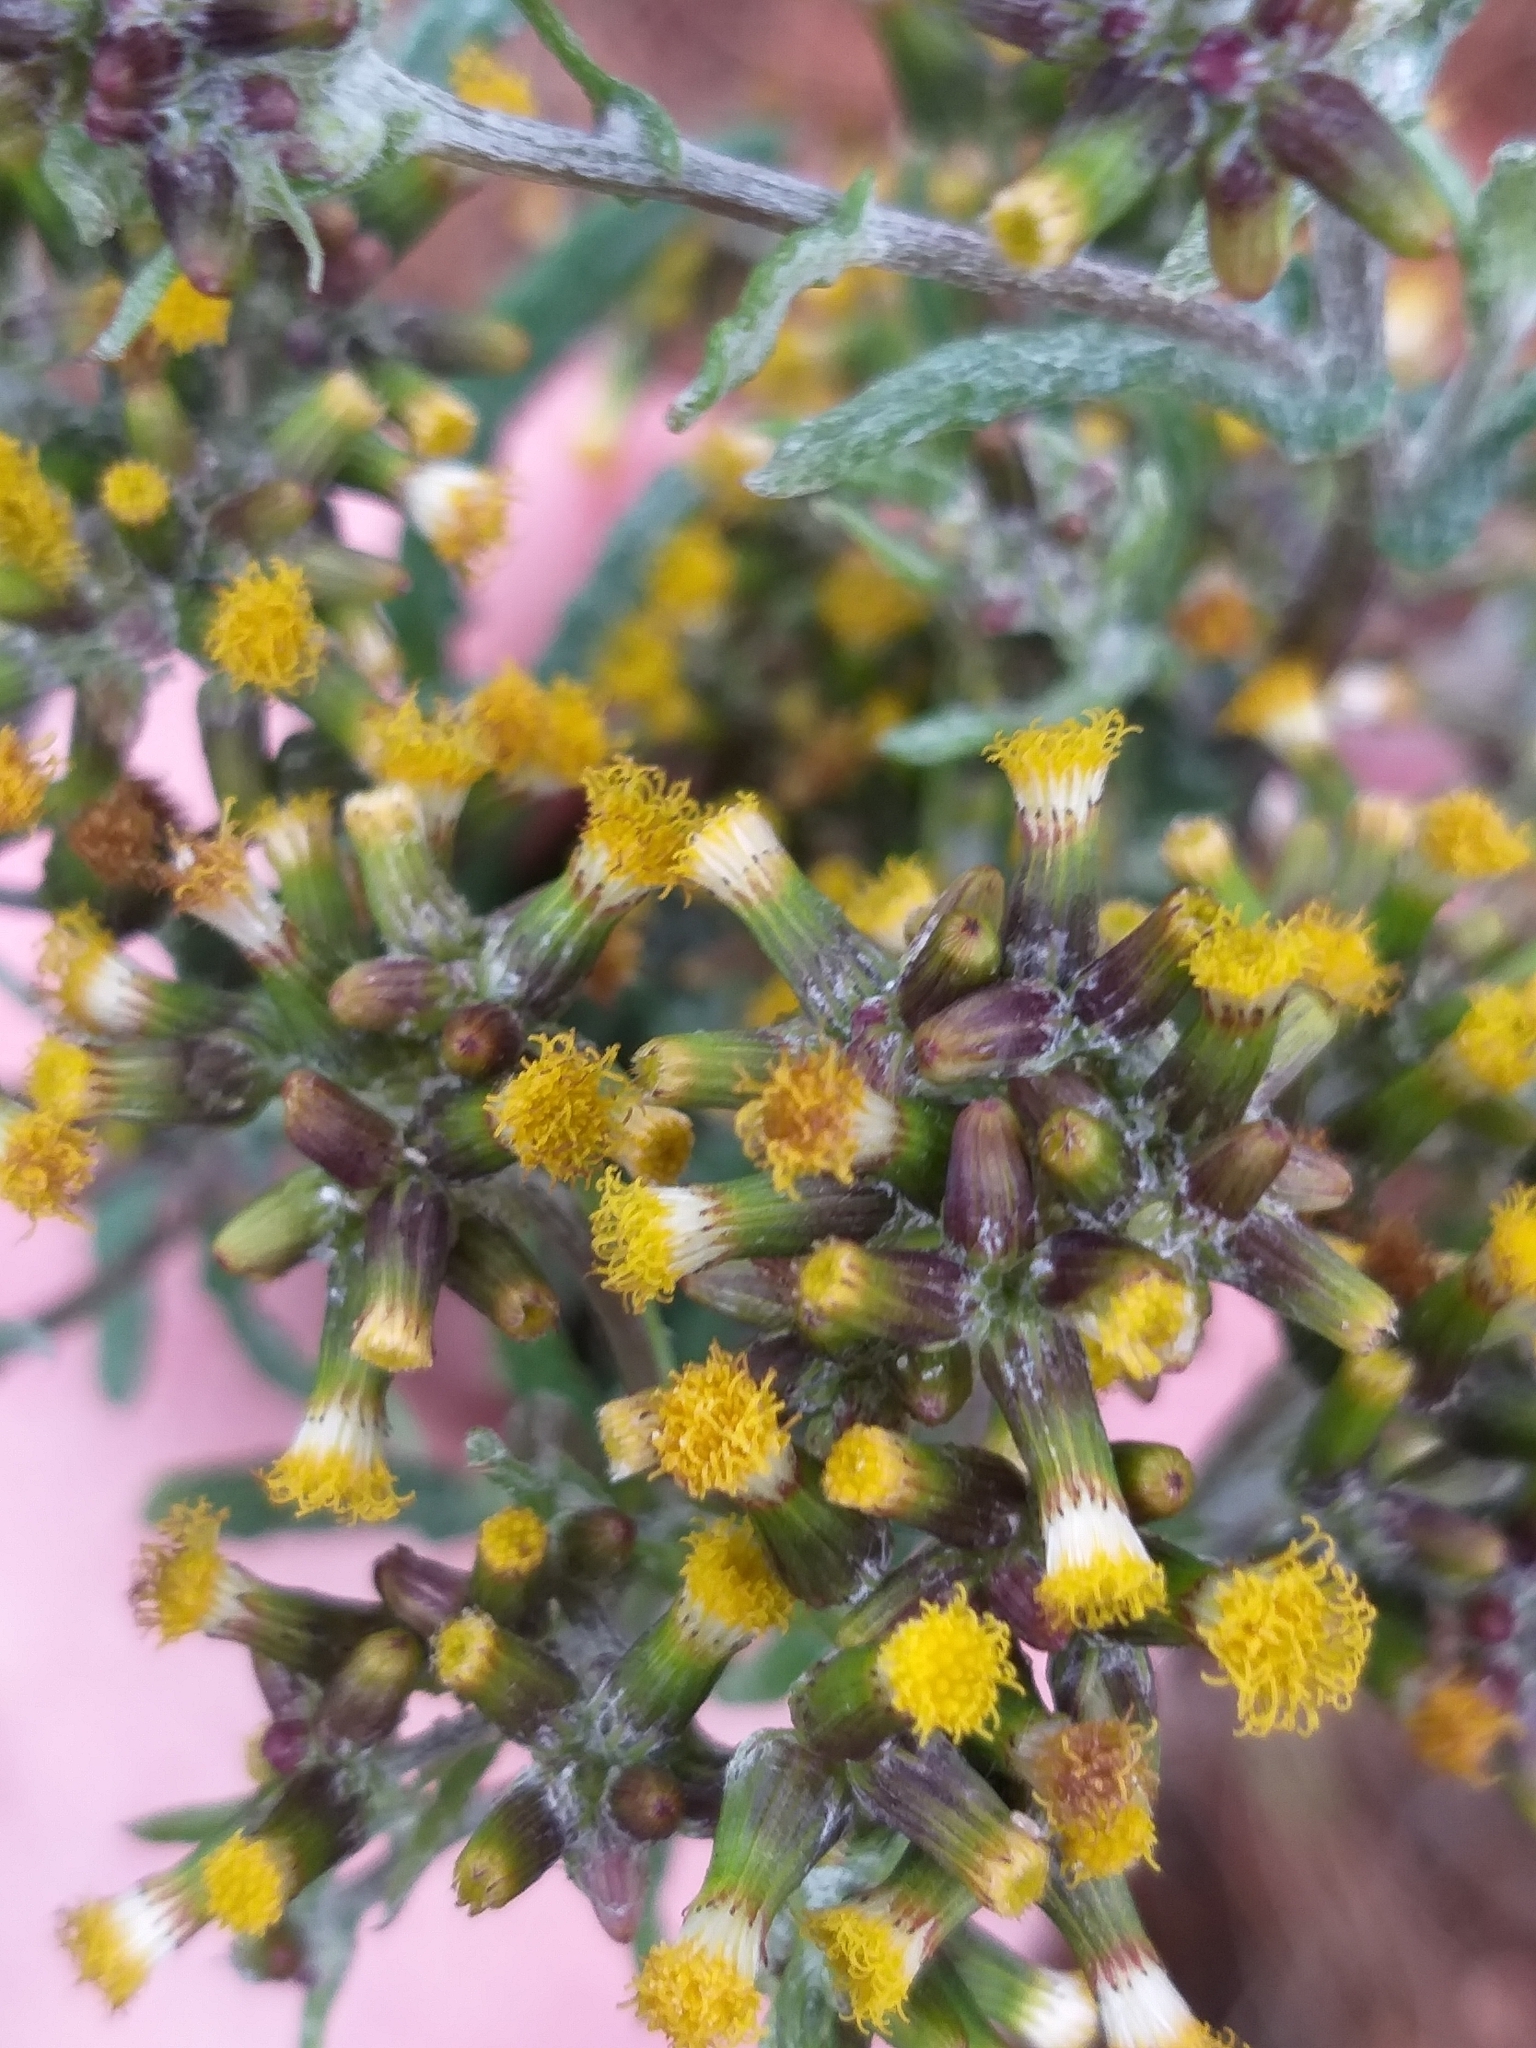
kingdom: Plantae
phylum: Tracheophyta
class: Magnoliopsida
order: Asterales
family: Asteraceae
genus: Senecio
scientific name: Senecio glomeratus
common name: Cutleaf burnweed
